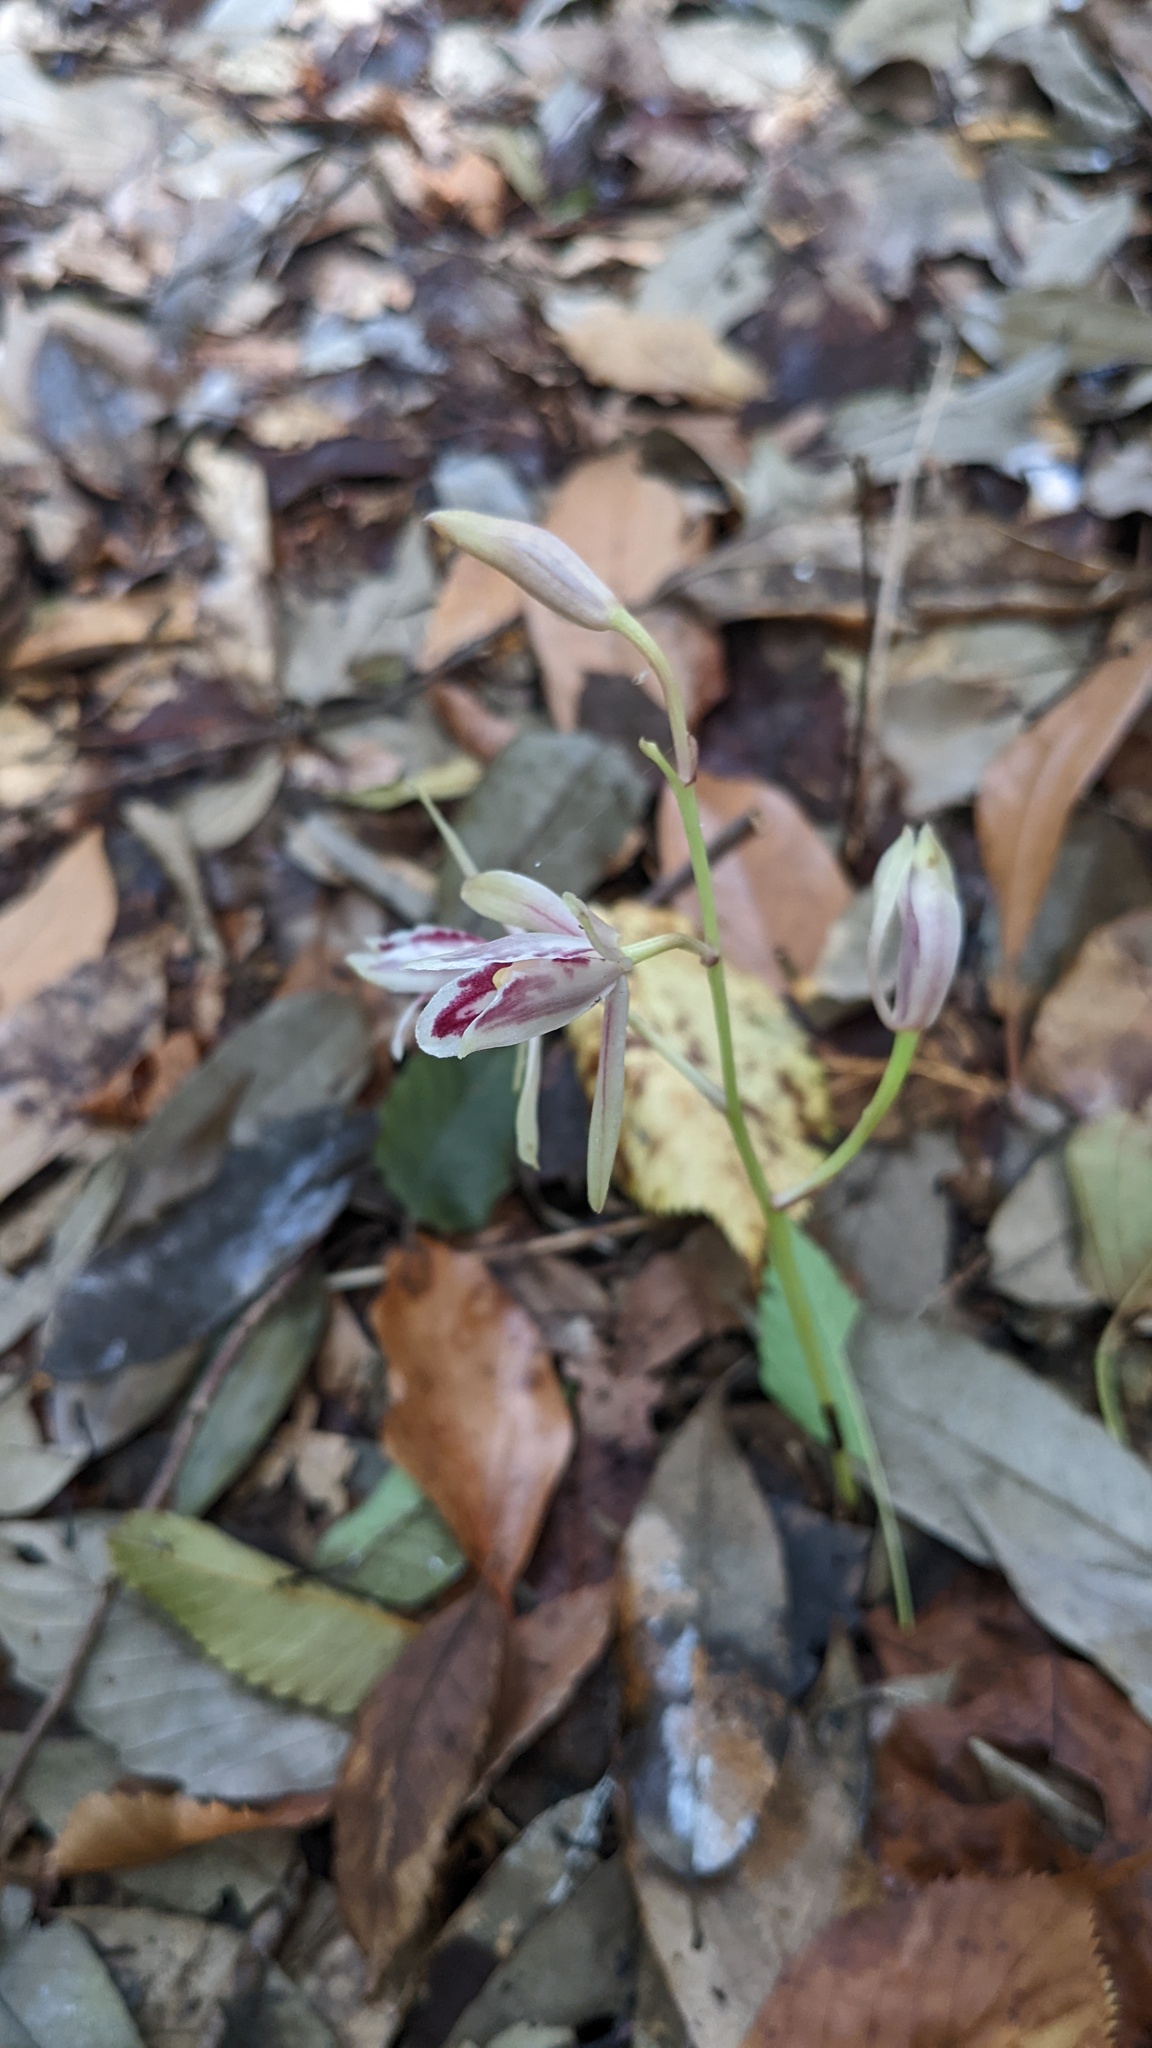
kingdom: Plantae
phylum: Tracheophyta
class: Liliopsida
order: Asparagales
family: Orchidaceae
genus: Cymbidium
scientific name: Cymbidium macrorhizon
